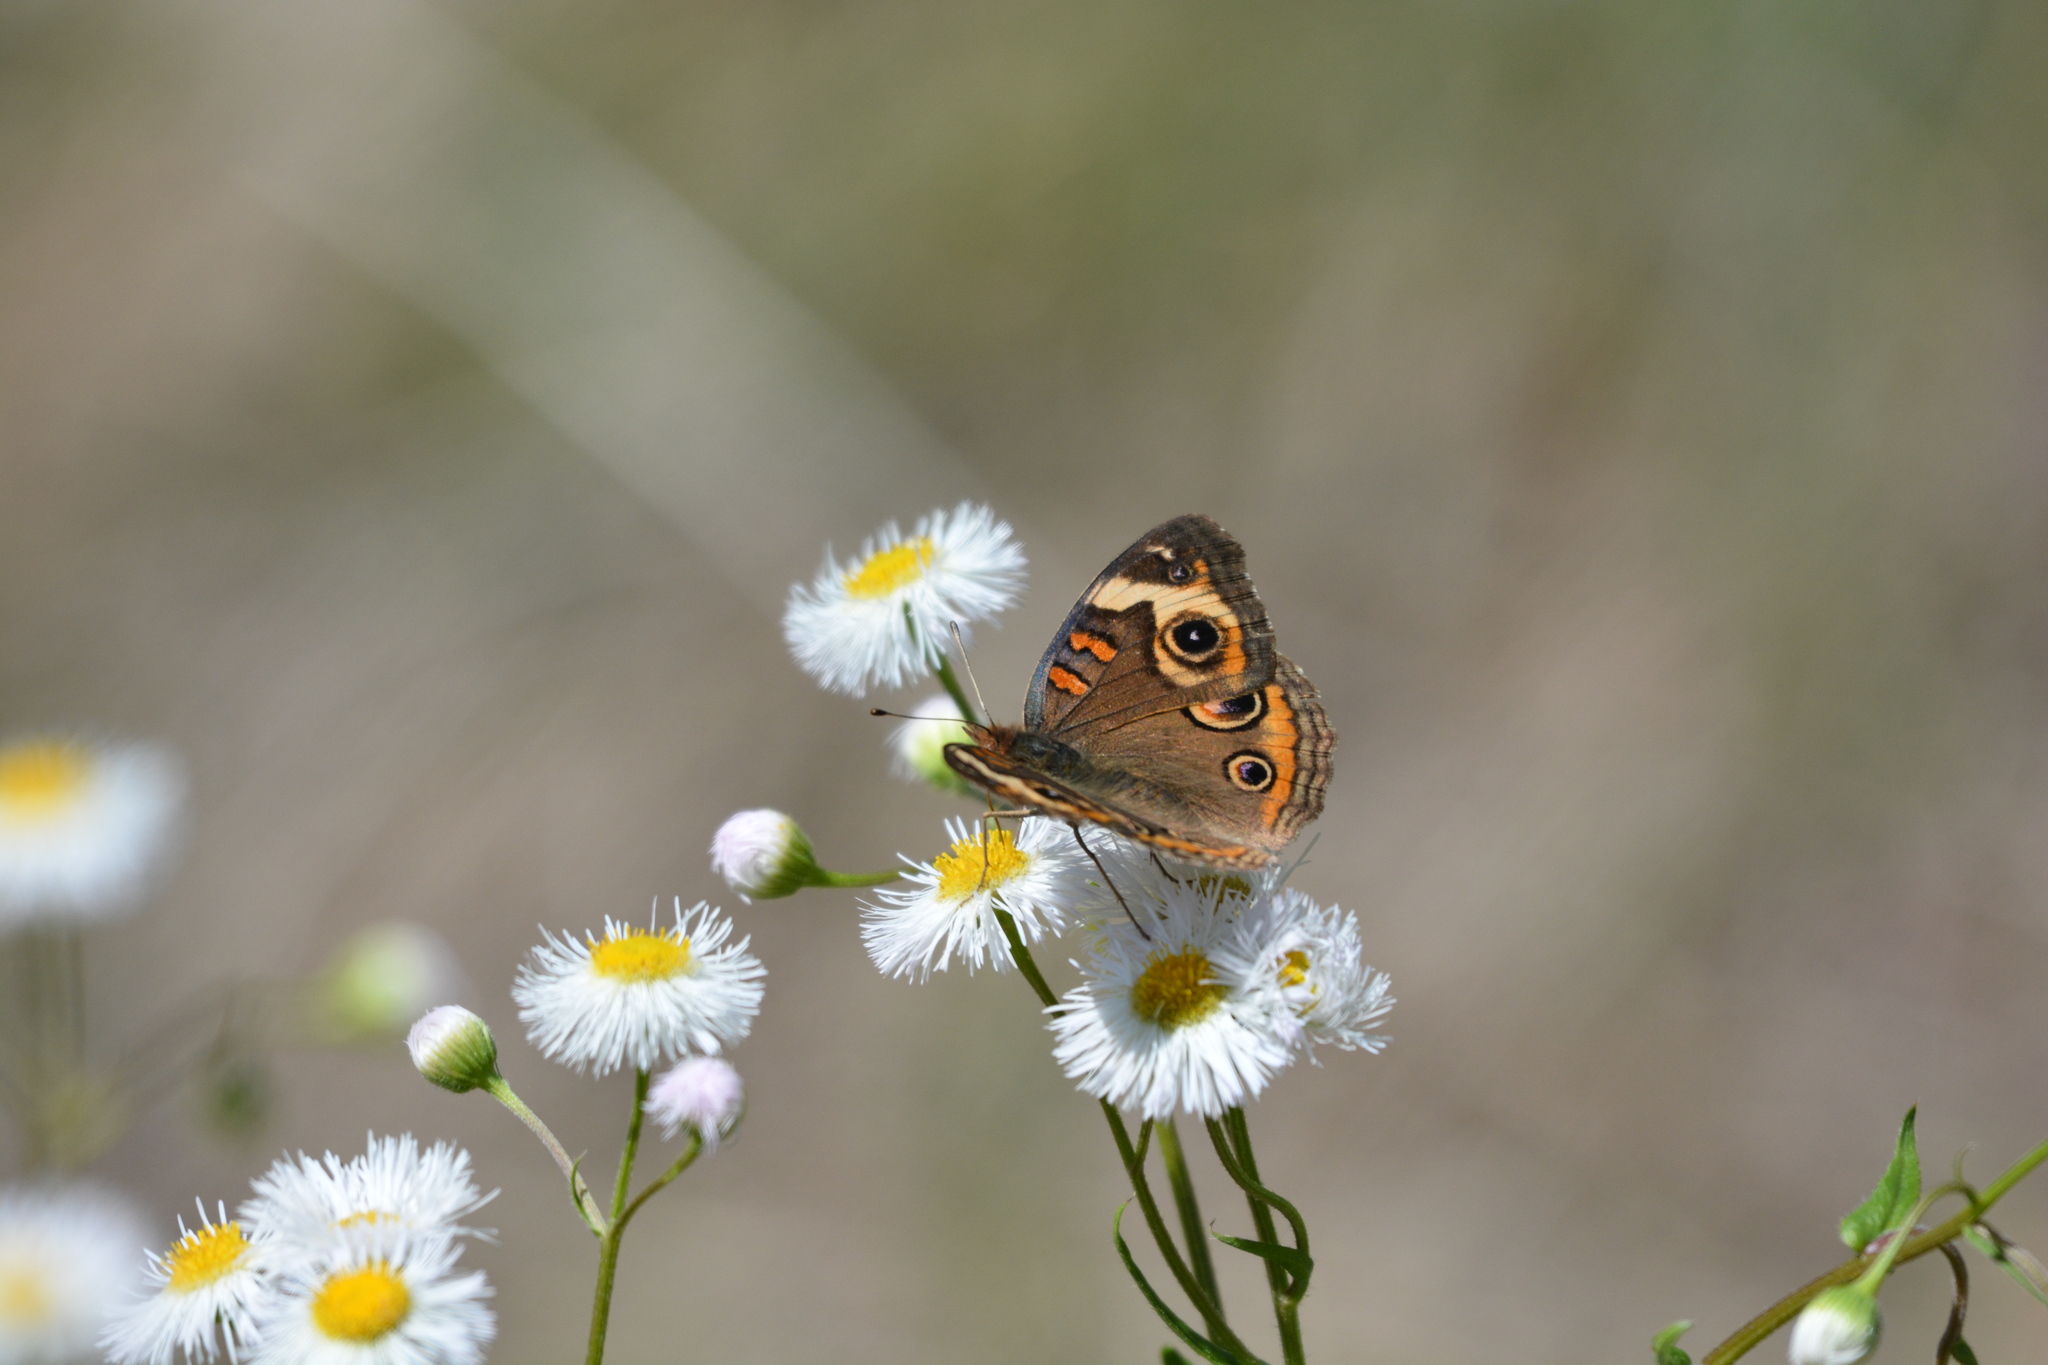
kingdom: Animalia
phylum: Arthropoda
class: Insecta
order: Lepidoptera
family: Nymphalidae
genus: Junonia
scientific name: Junonia coenia
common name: Common buckeye
